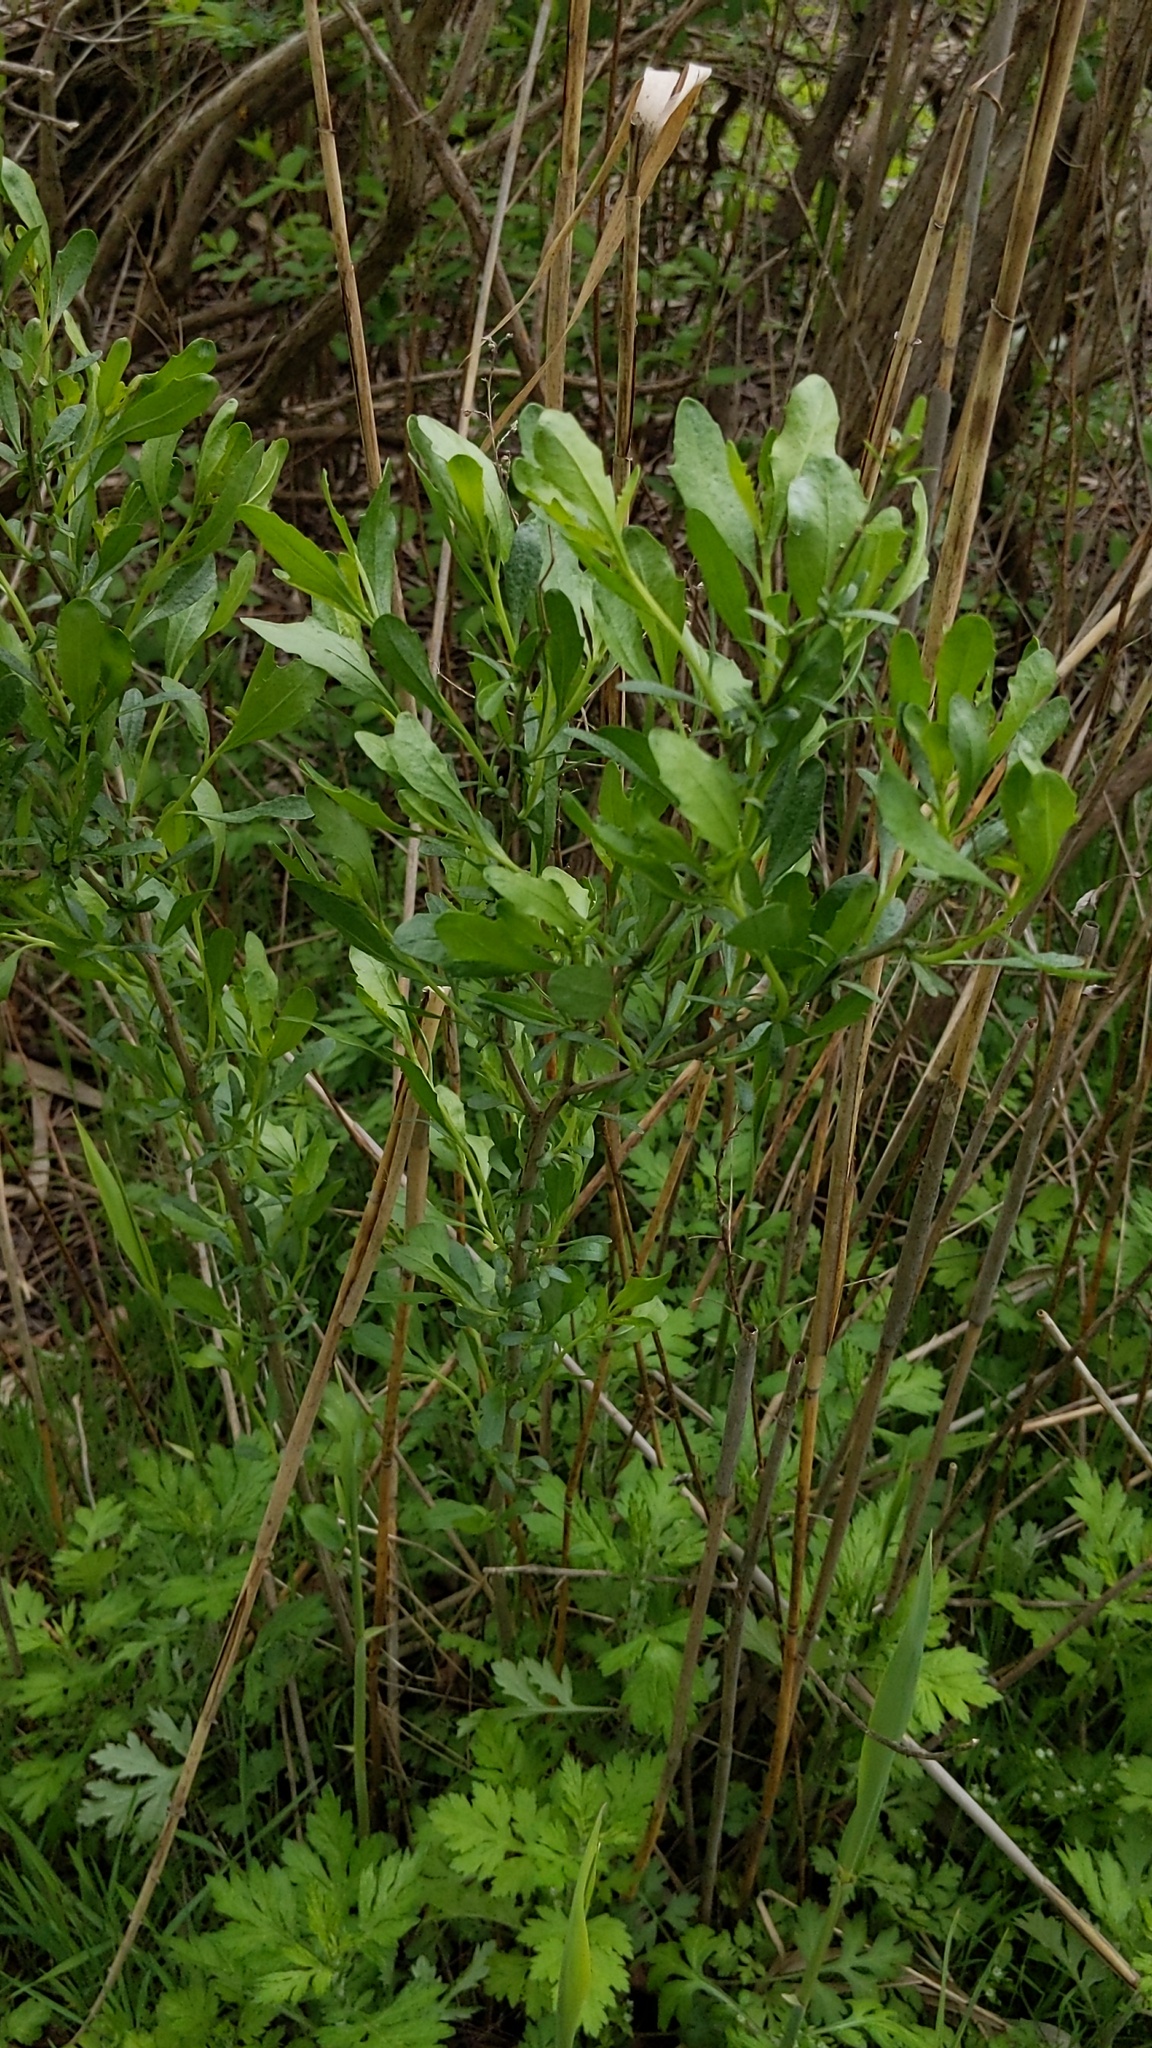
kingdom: Plantae
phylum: Tracheophyta
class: Magnoliopsida
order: Asterales
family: Asteraceae
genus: Baccharis
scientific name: Baccharis halimifolia
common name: Eastern baccharis
